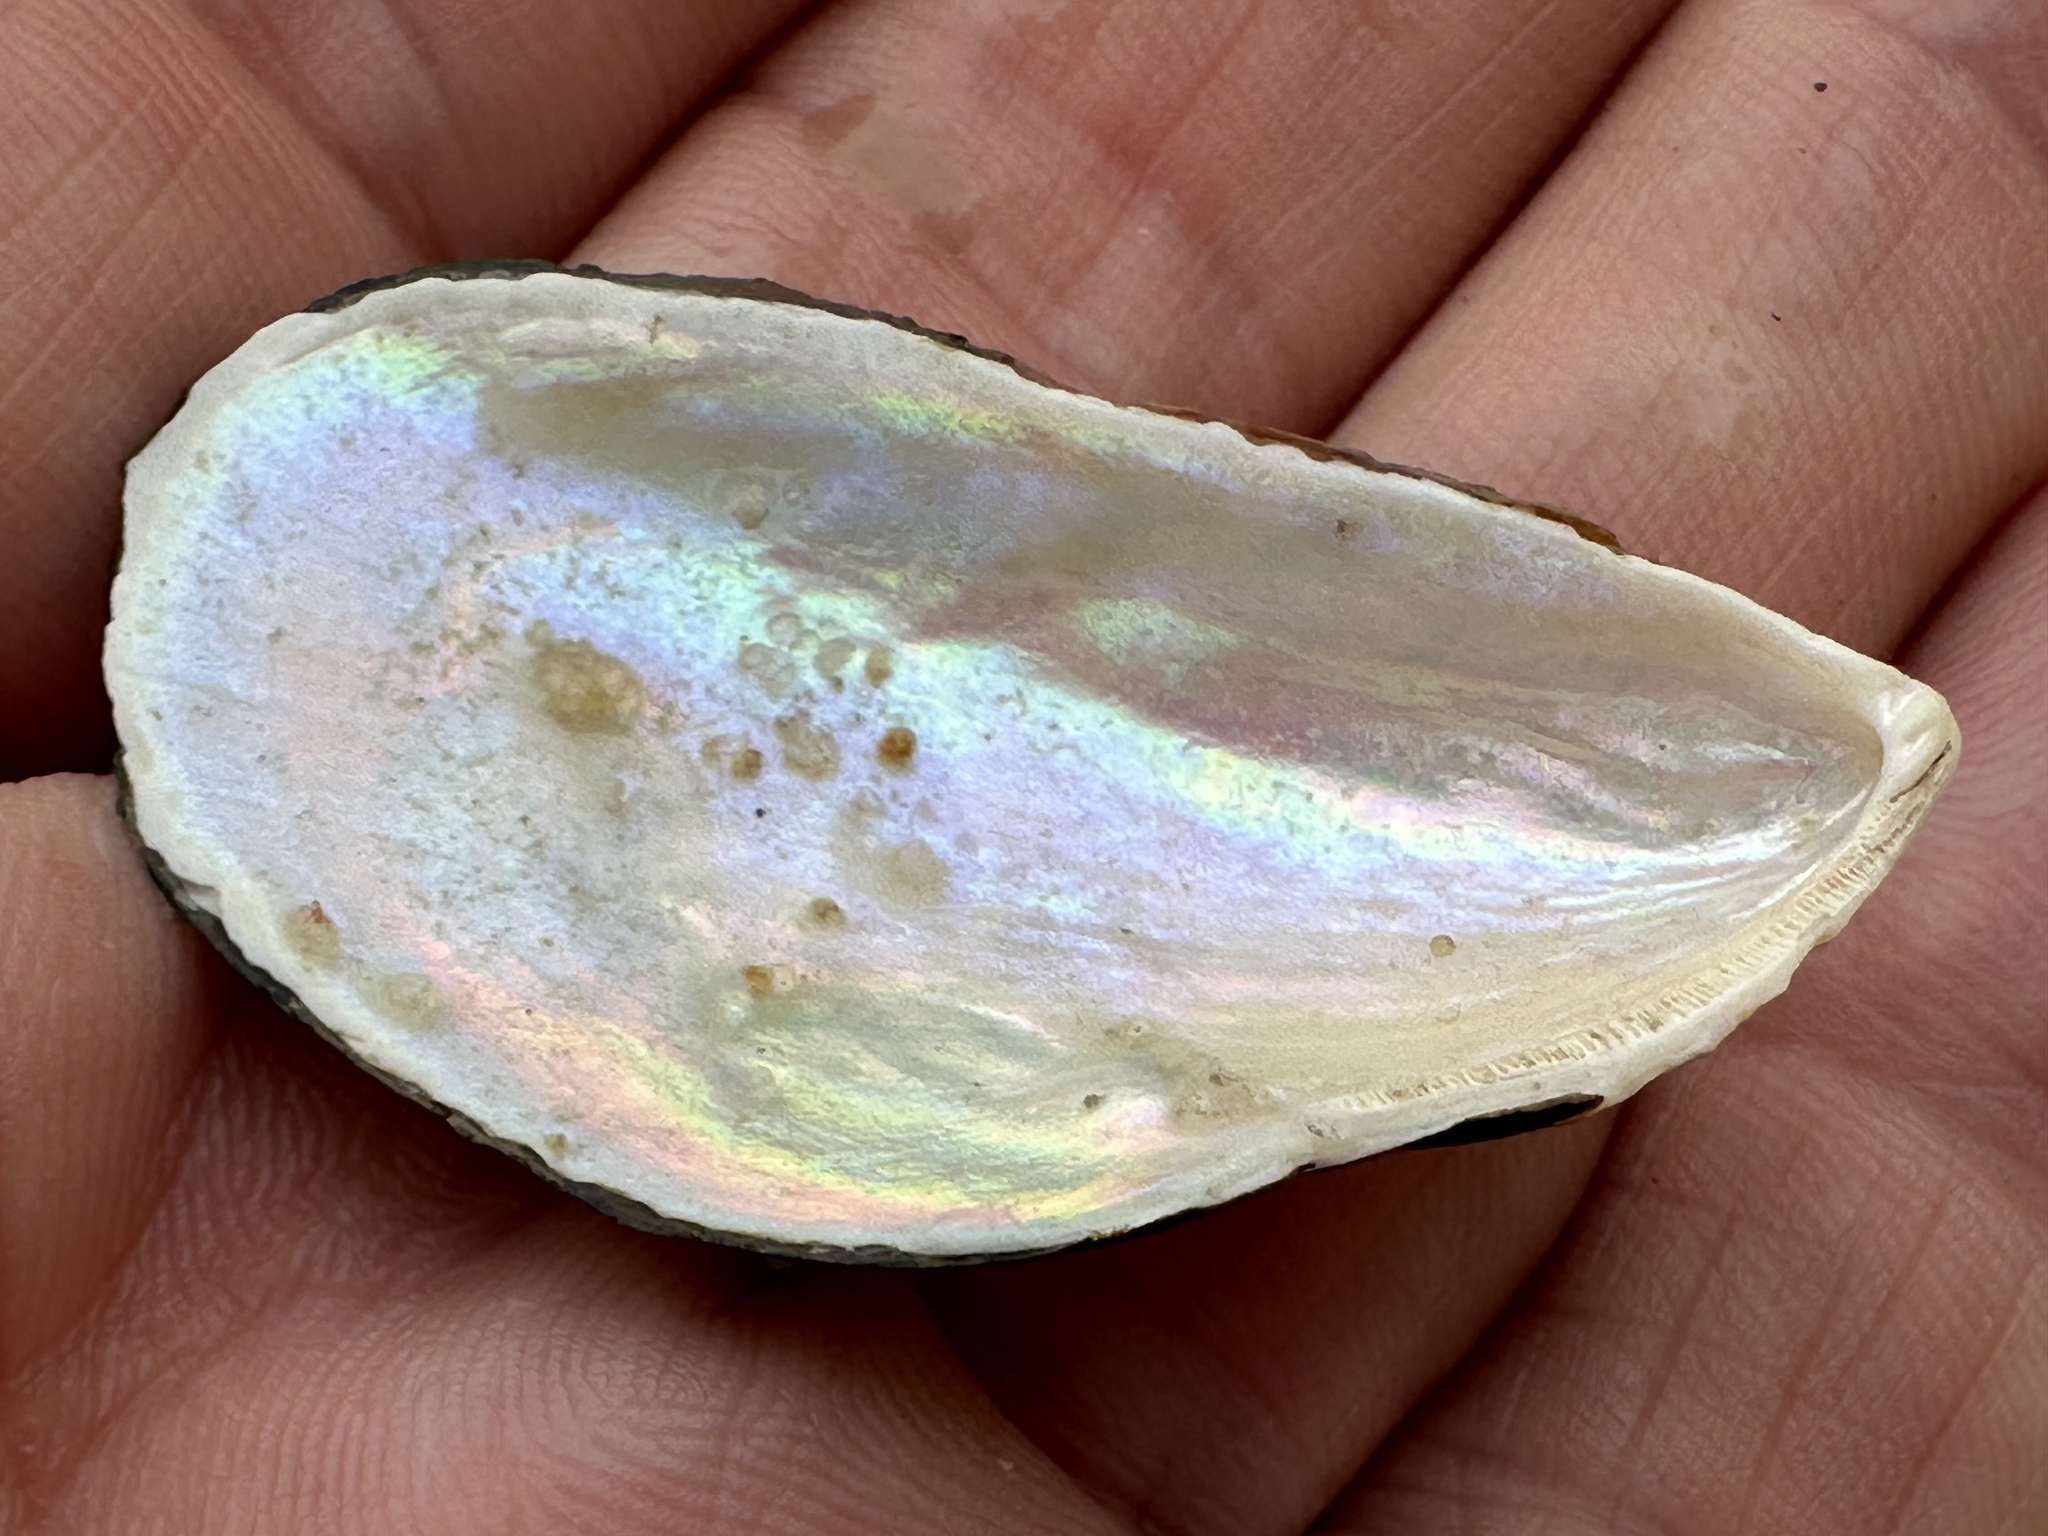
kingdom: Animalia
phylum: Mollusca
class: Bivalvia
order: Mytilida
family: Mytilidae
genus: Perna
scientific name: Perna viridis
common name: Green mussel
